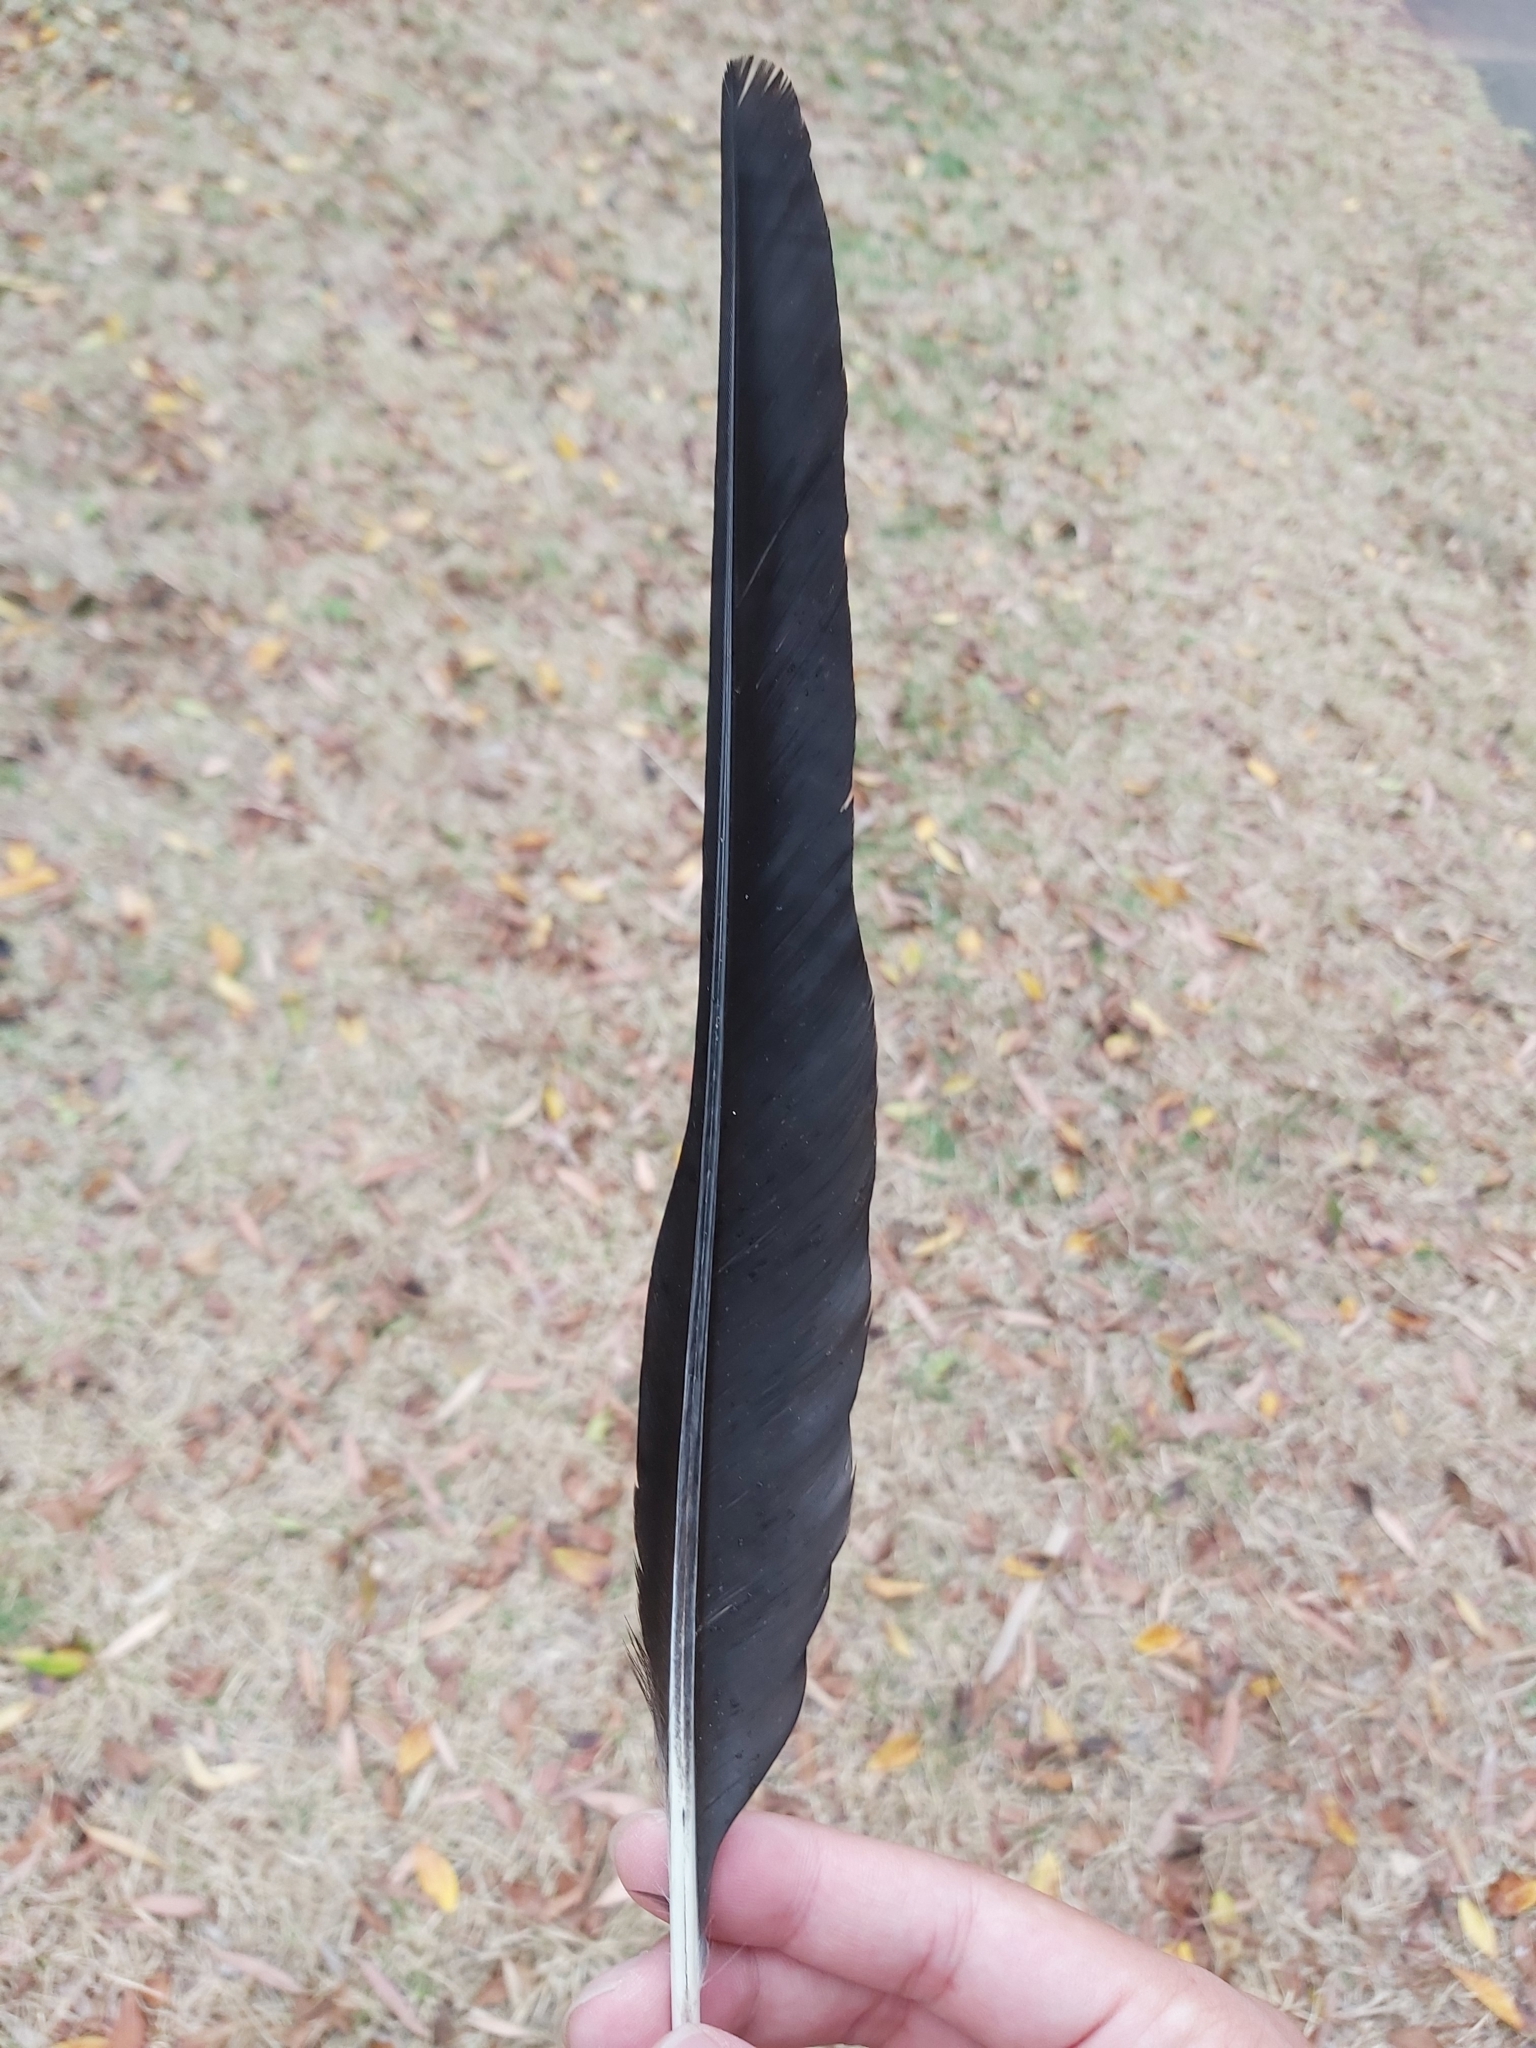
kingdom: Animalia
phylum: Chordata
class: Aves
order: Passeriformes
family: Corvidae
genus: Corvus
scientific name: Corvus coronoides
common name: Australian raven
